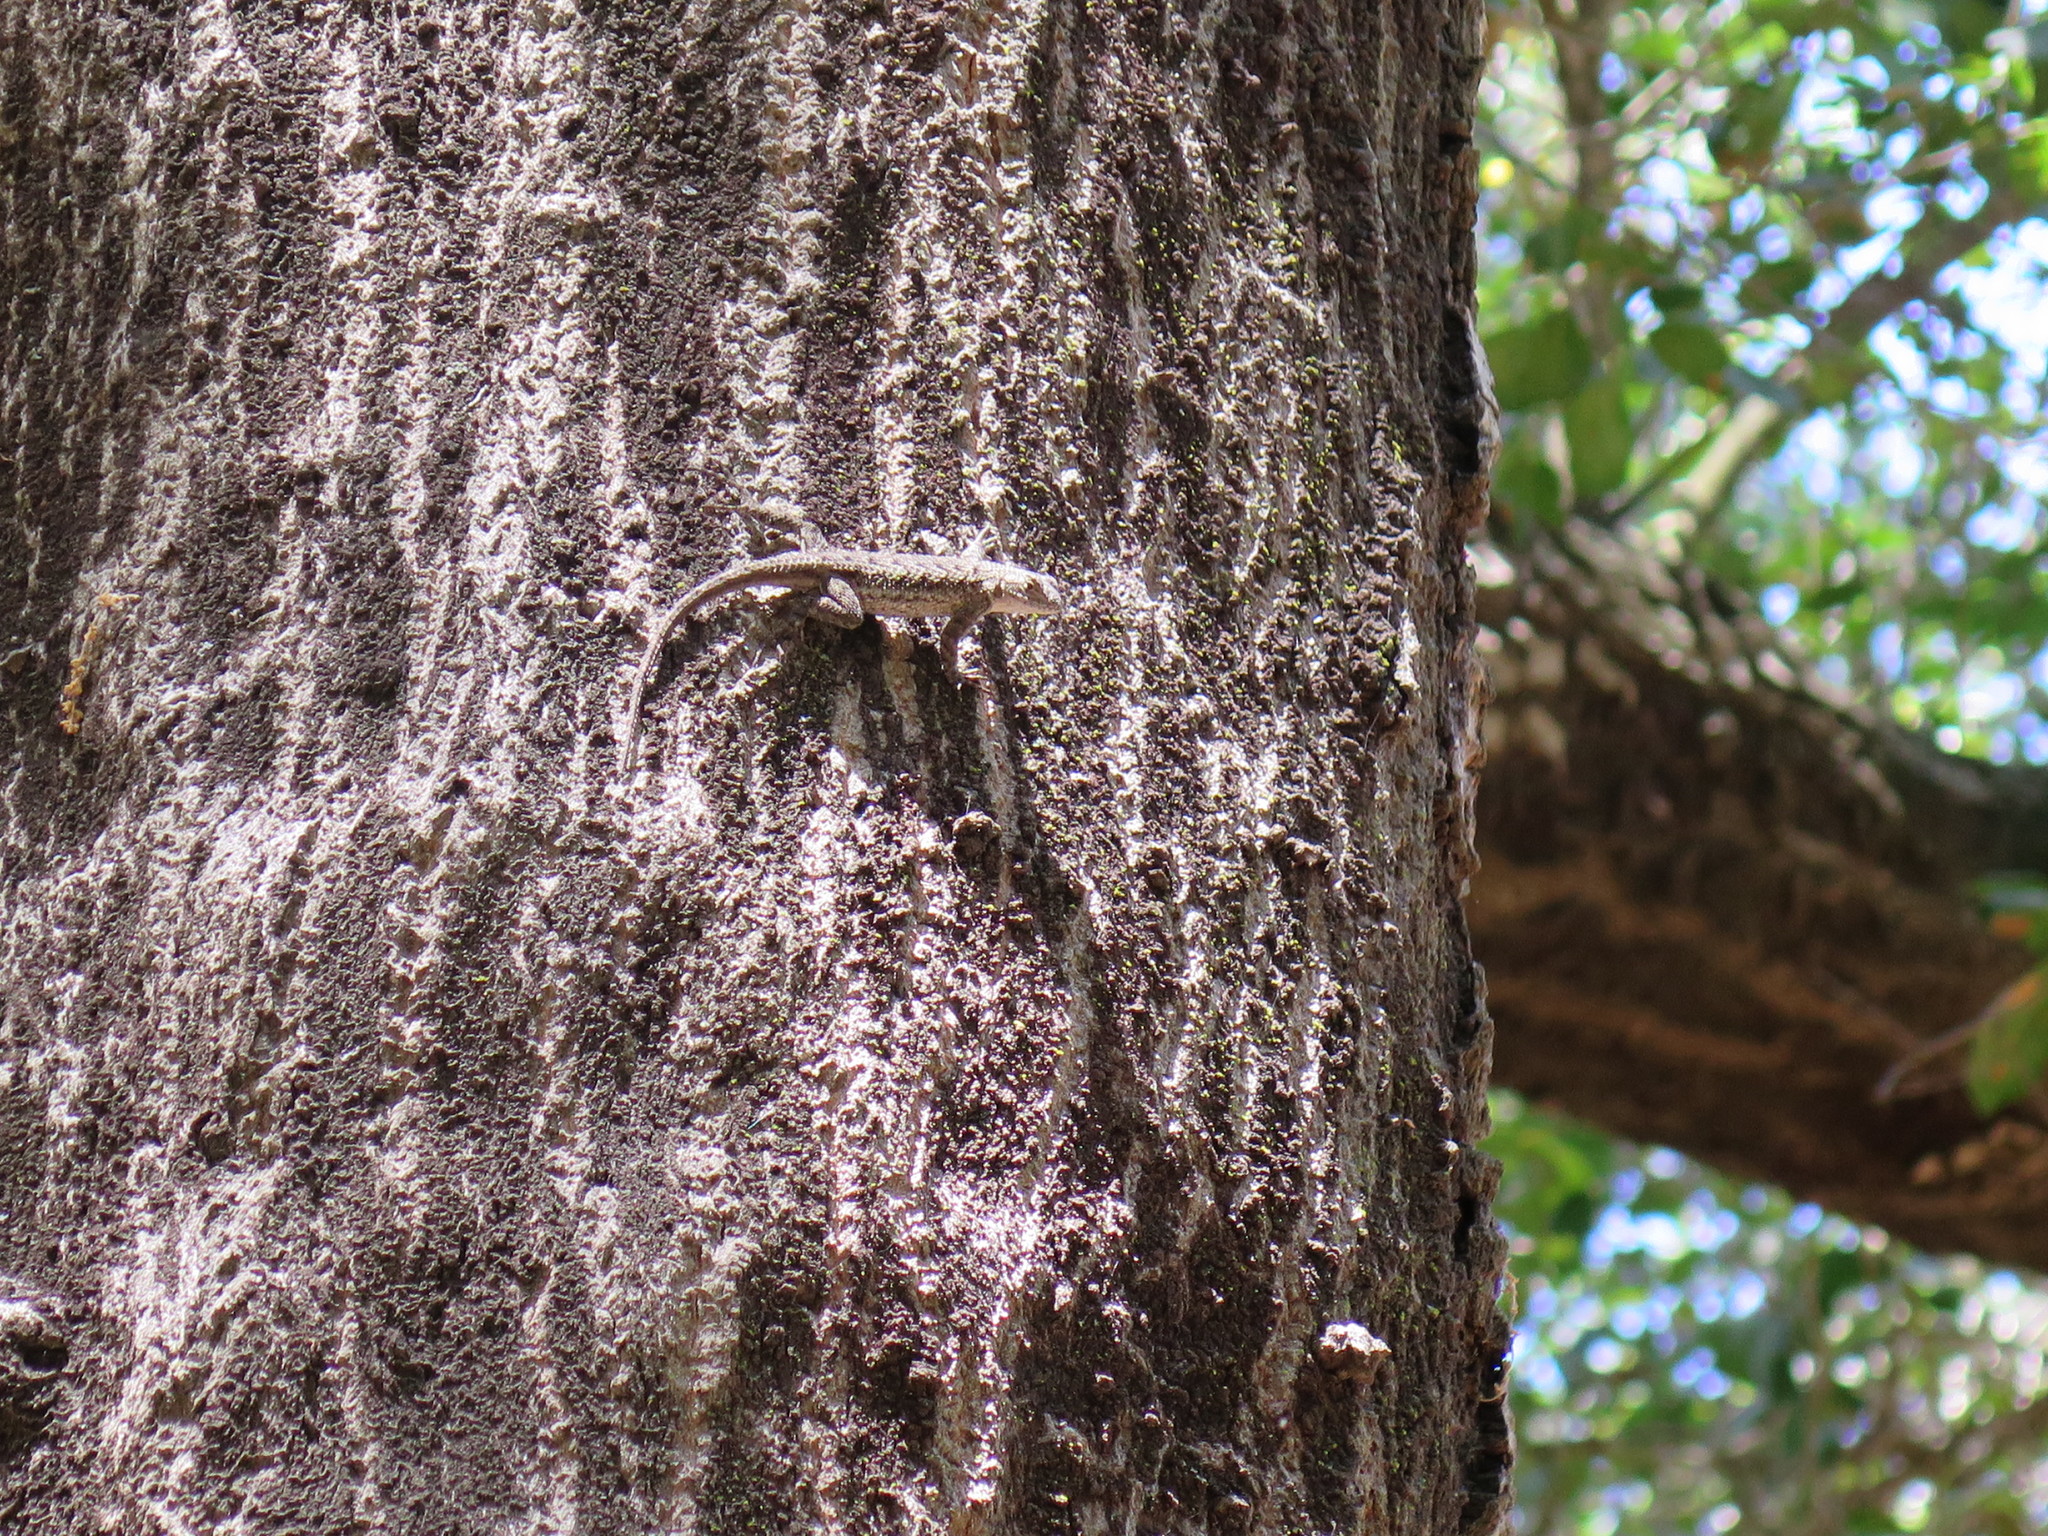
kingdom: Animalia
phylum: Chordata
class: Squamata
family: Phrynosomatidae
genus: Sceloporus
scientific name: Sceloporus occidentalis
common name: Western fence lizard
